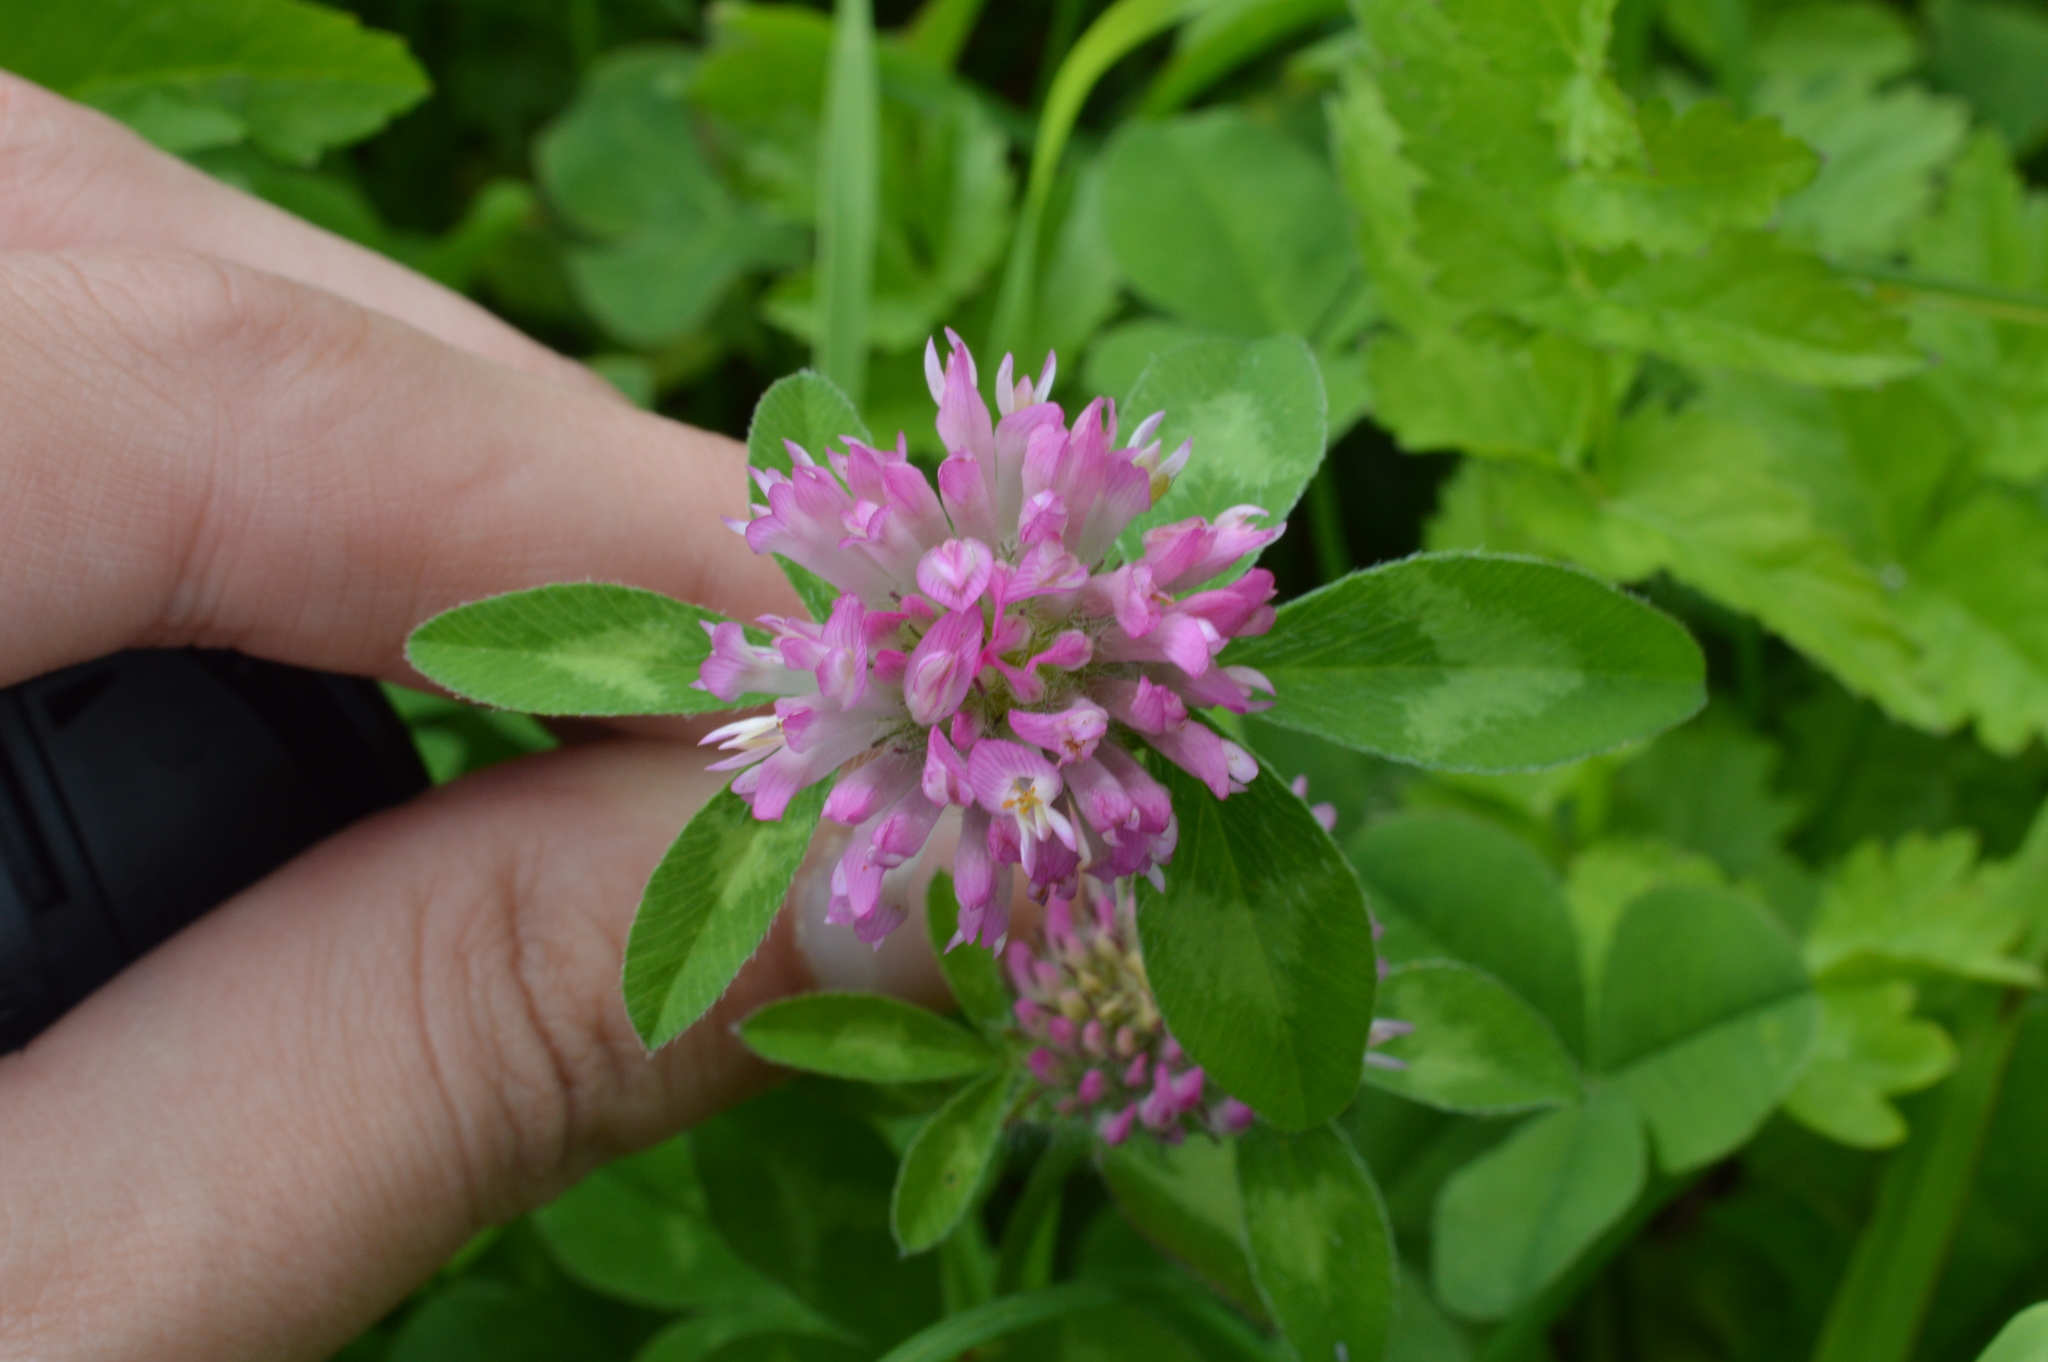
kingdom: Plantae
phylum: Tracheophyta
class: Magnoliopsida
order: Fabales
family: Fabaceae
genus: Trifolium
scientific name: Trifolium pratense
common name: Red clover
